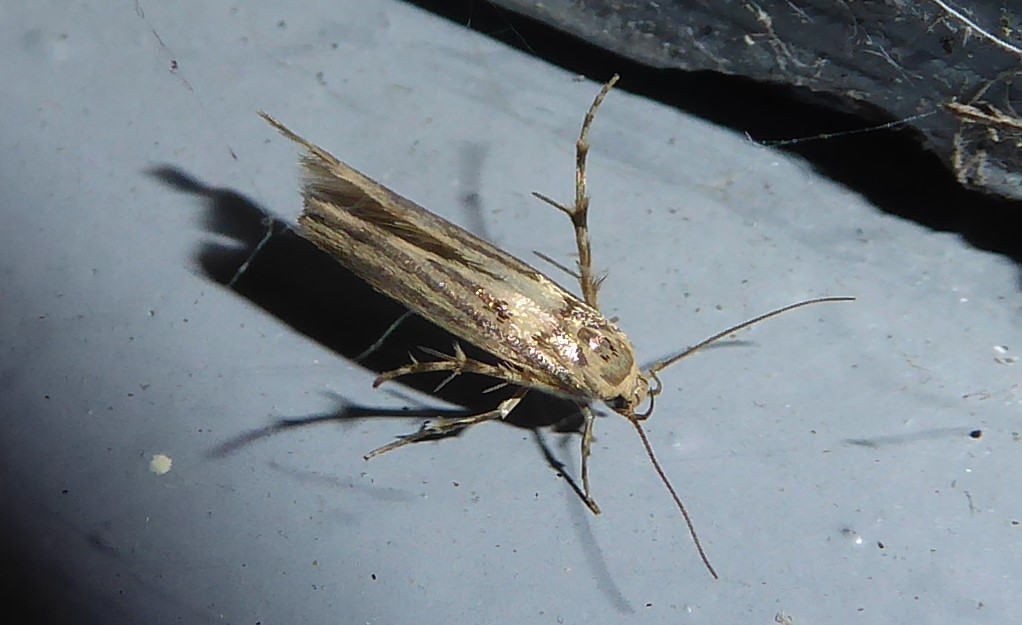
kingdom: Animalia
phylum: Arthropoda
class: Insecta
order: Lepidoptera
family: Stathmopodidae
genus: Stathmopoda
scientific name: Stathmopoda plumbiflua
